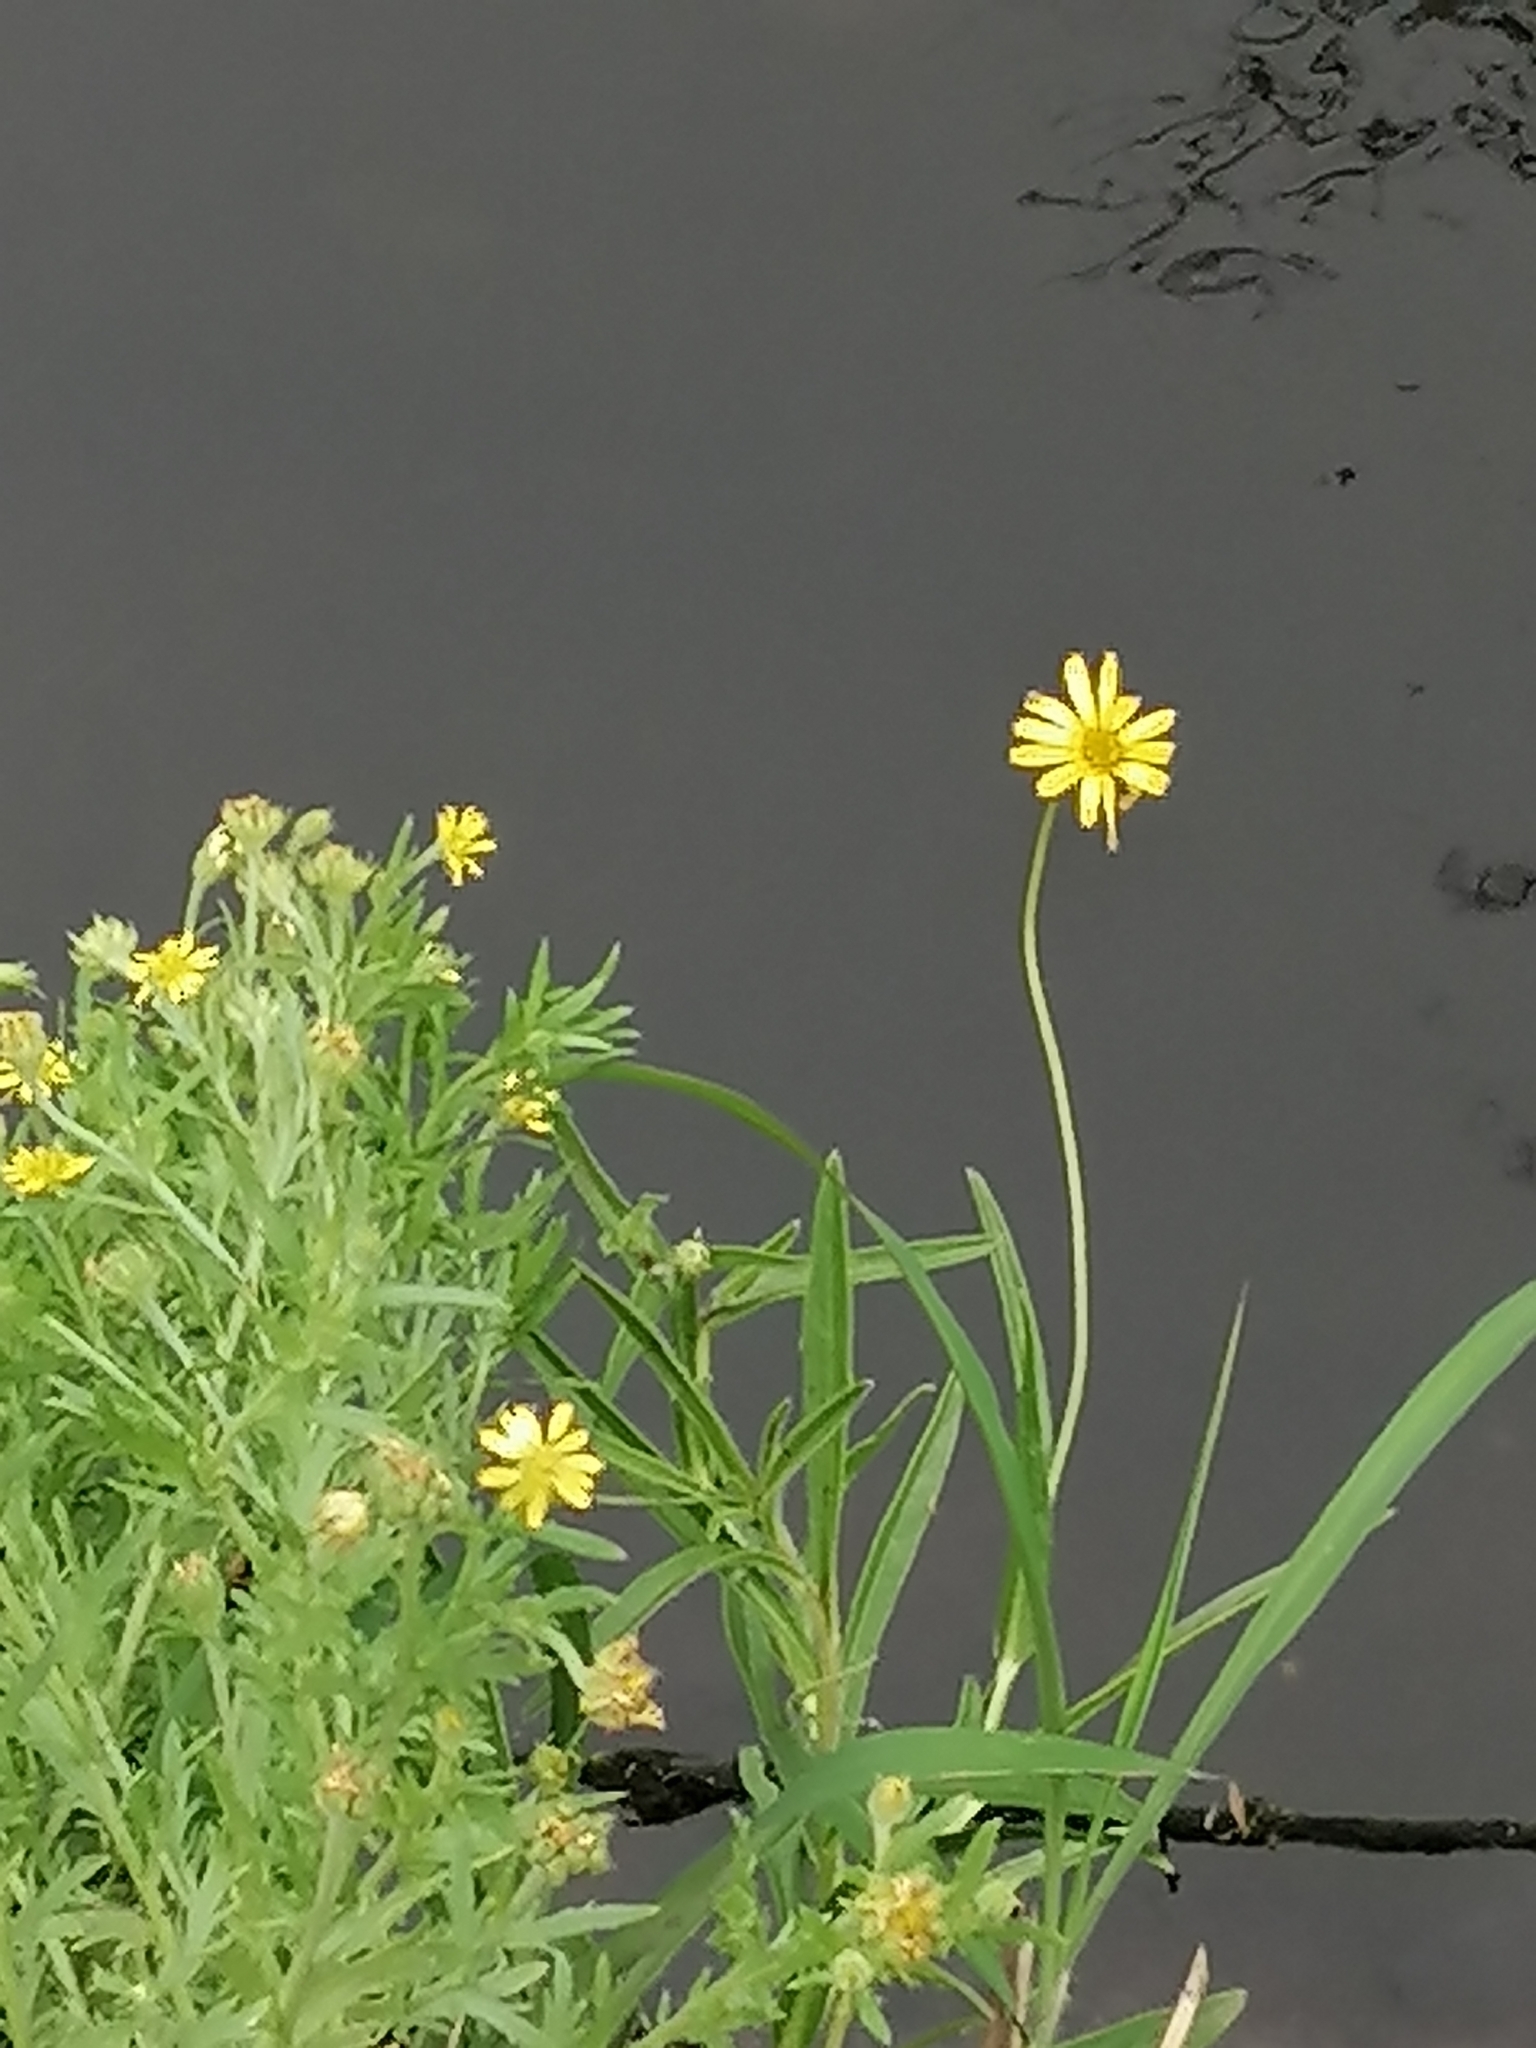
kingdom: Plantae
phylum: Tracheophyta
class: Magnoliopsida
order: Asterales
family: Asteraceae
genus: Osteospermum
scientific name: Osteospermum muricatum
